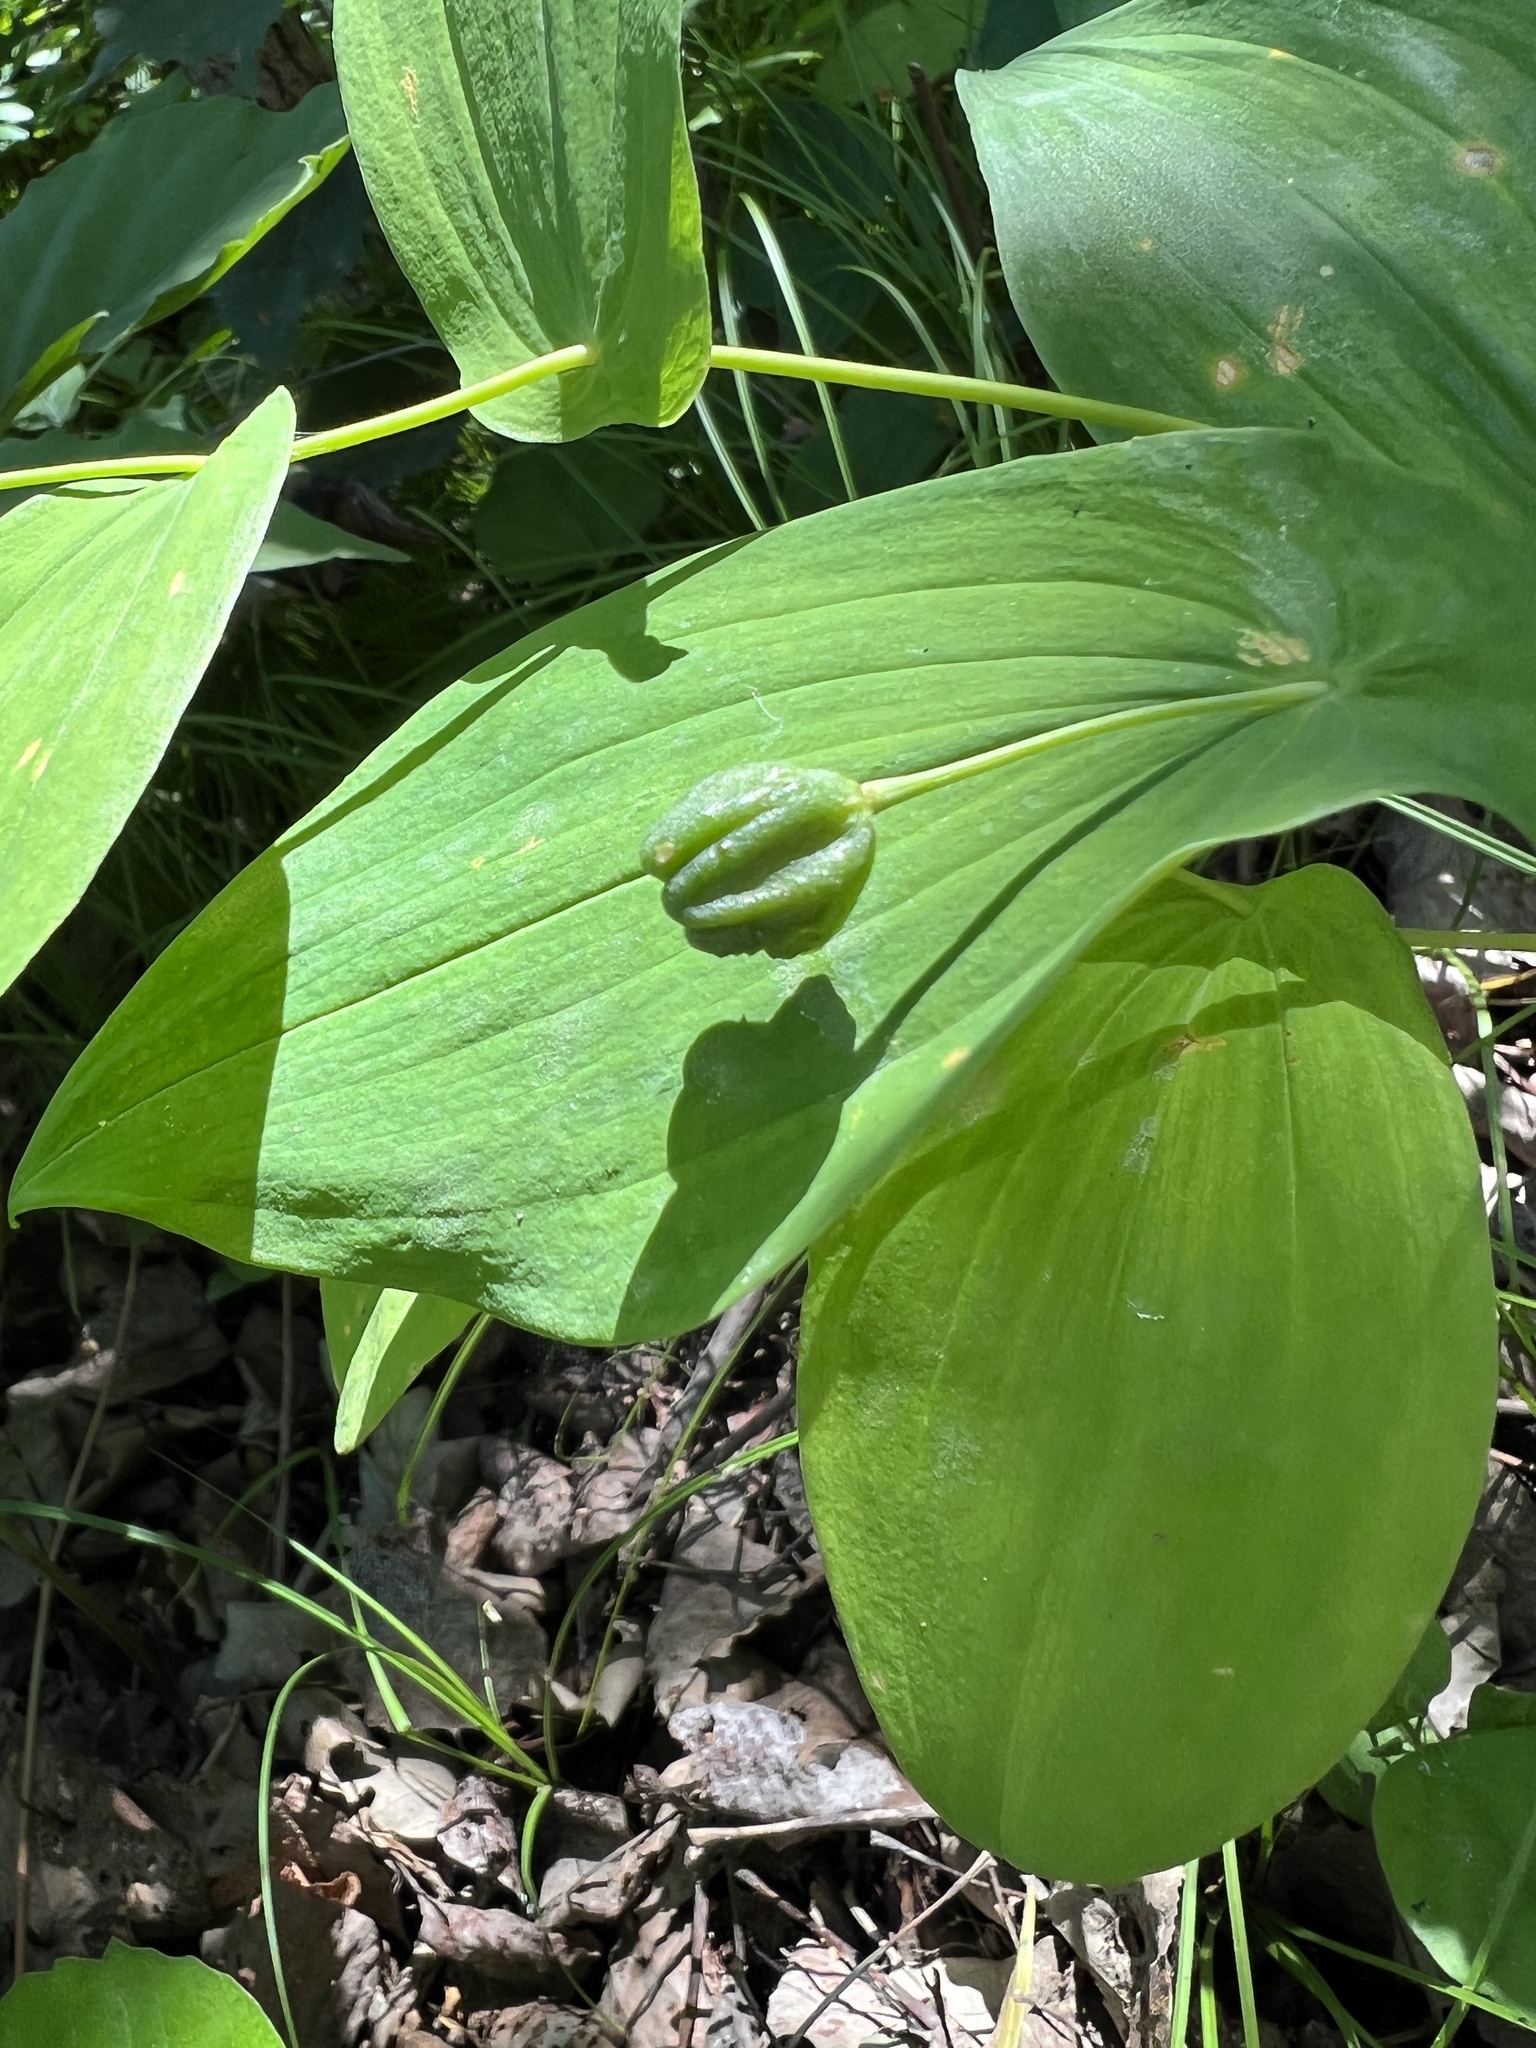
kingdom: Plantae
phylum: Tracheophyta
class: Liliopsida
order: Liliales
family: Colchicaceae
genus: Uvularia
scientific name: Uvularia grandiflora
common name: Bellwort
